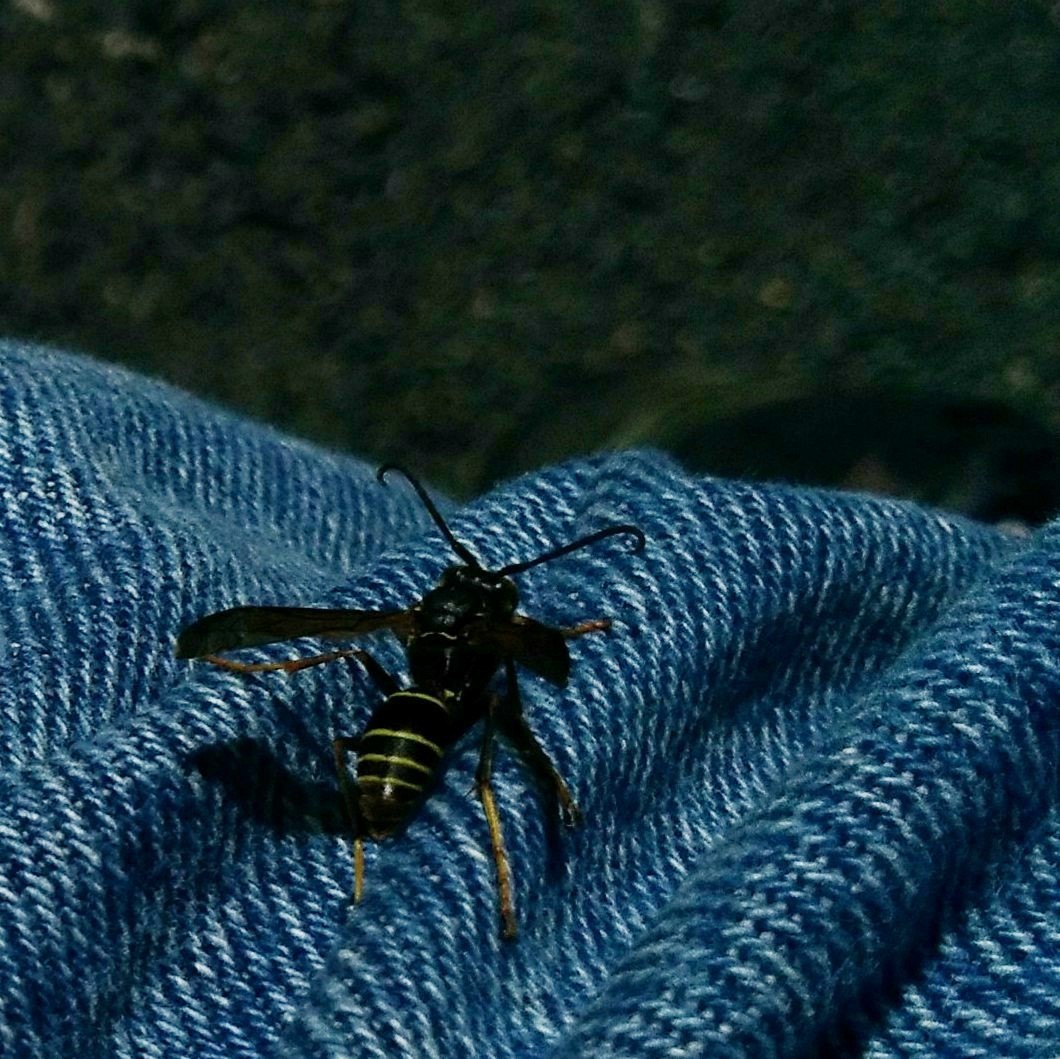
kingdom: Animalia
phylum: Arthropoda
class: Insecta
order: Hymenoptera
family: Eumenidae
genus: Polistes
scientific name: Polistes fuscatus
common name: Dark paper wasp
